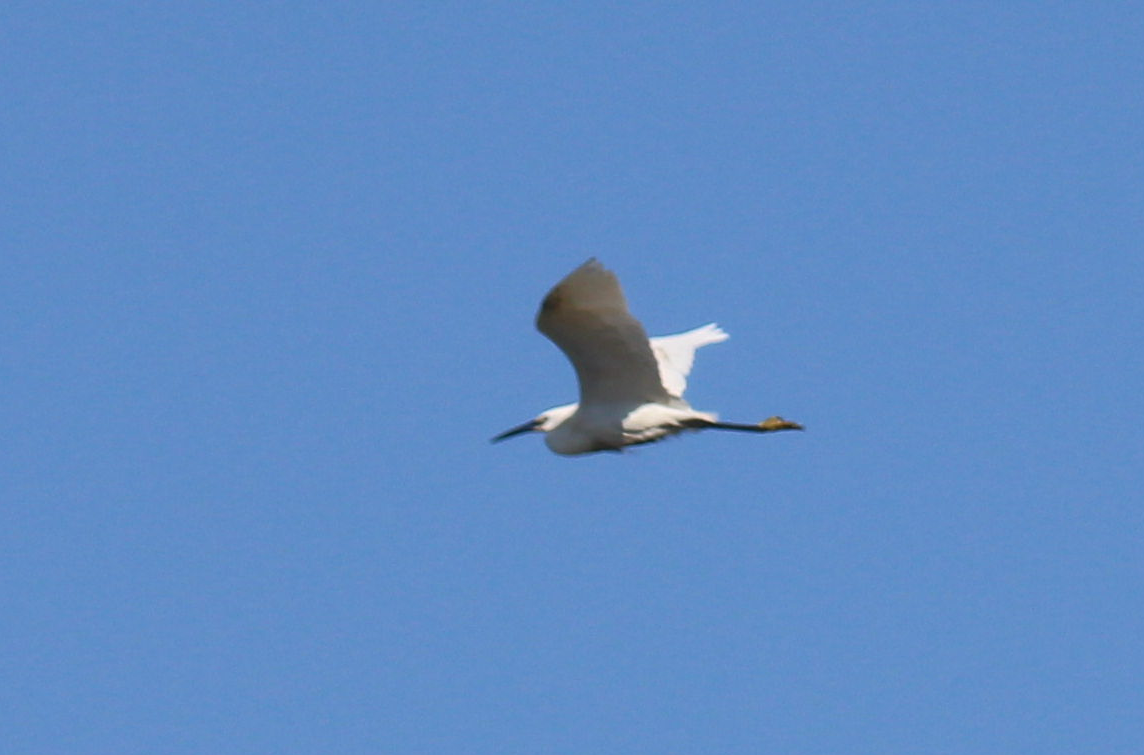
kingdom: Animalia
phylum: Chordata
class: Aves
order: Pelecaniformes
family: Ardeidae
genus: Egretta
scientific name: Egretta garzetta
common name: Little egret
